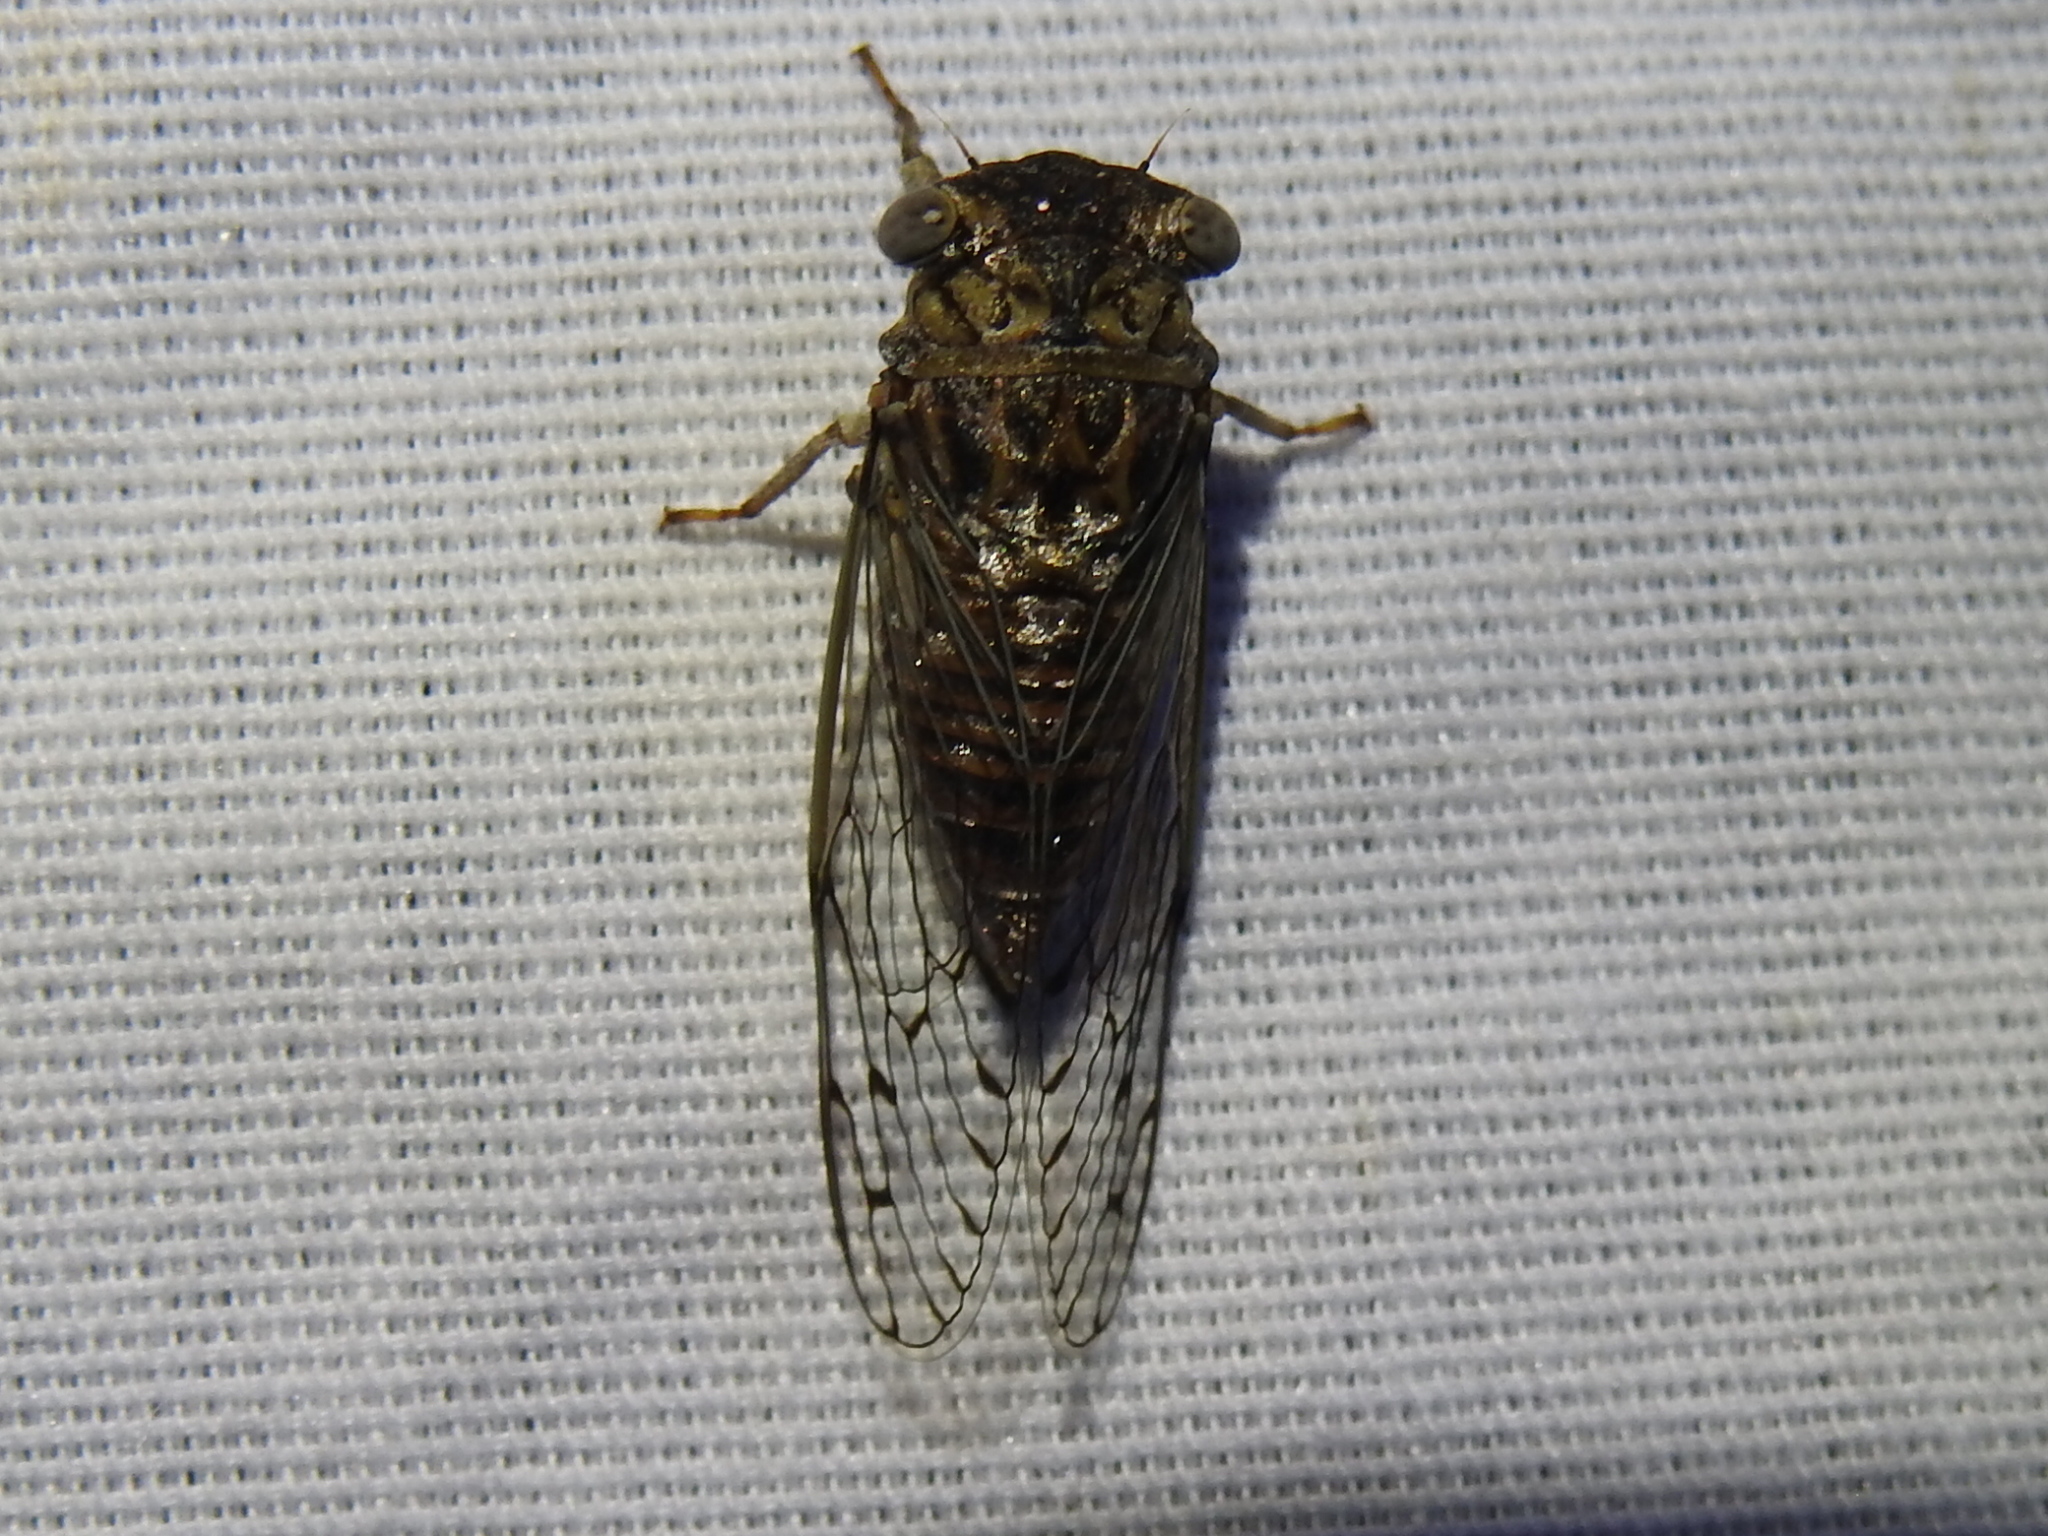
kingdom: Animalia
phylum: Arthropoda
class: Insecta
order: Hemiptera
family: Cicadidae
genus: Pacarina
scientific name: Pacarina puella
